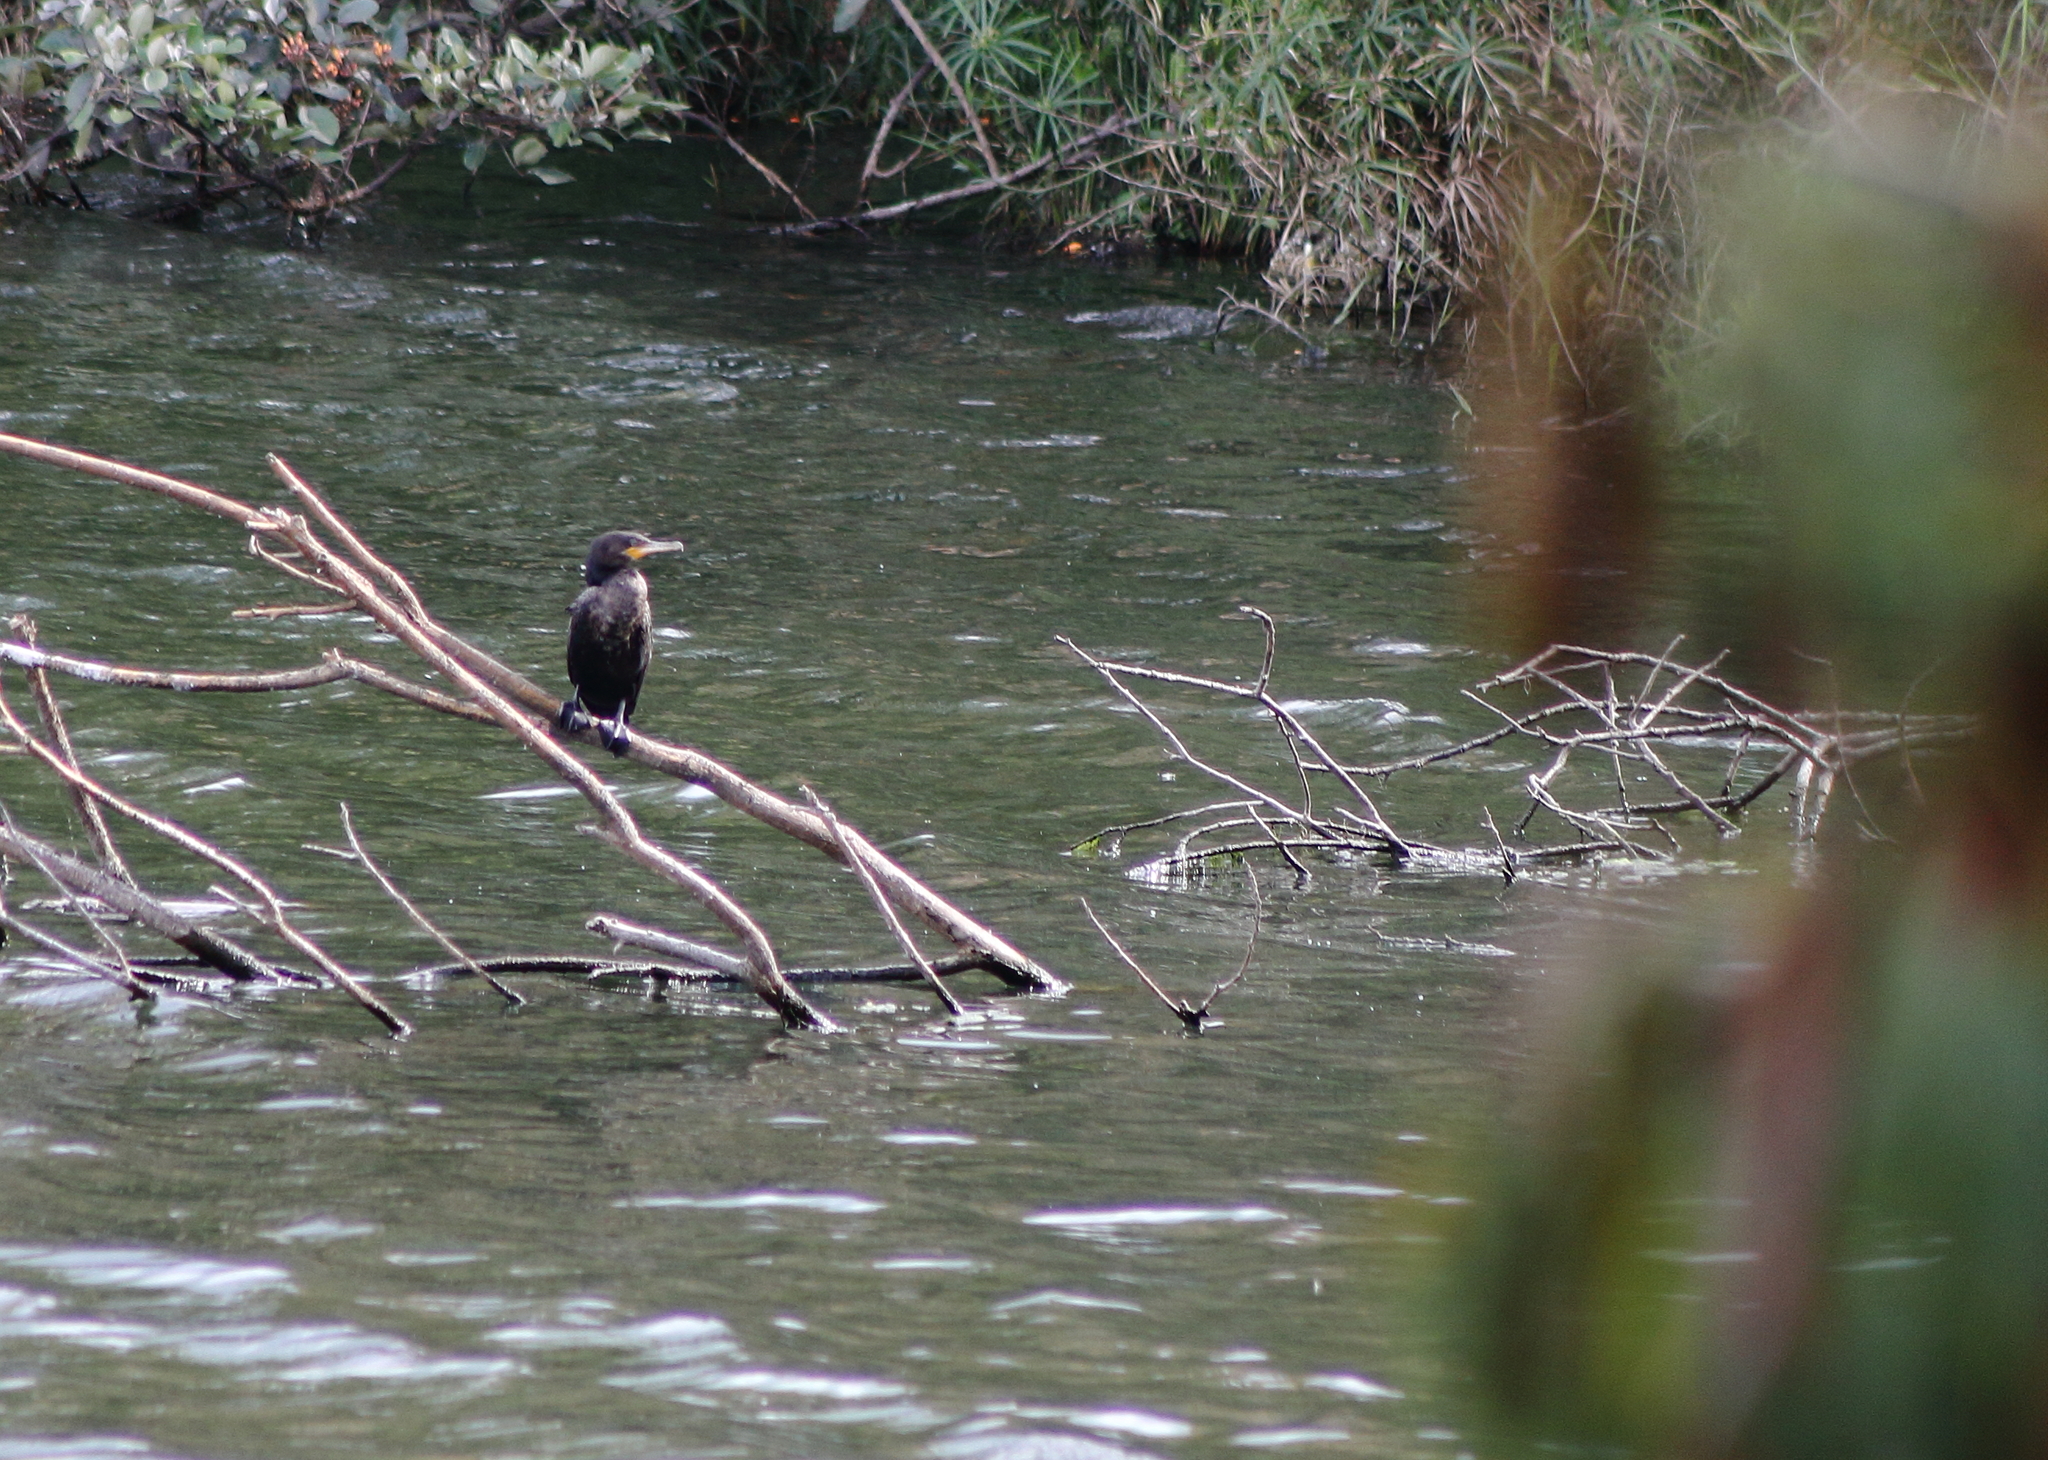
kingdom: Animalia
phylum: Chordata
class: Aves
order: Suliformes
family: Phalacrocoracidae
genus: Phalacrocorax
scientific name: Phalacrocorax brasilianus
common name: Neotropic cormorant
